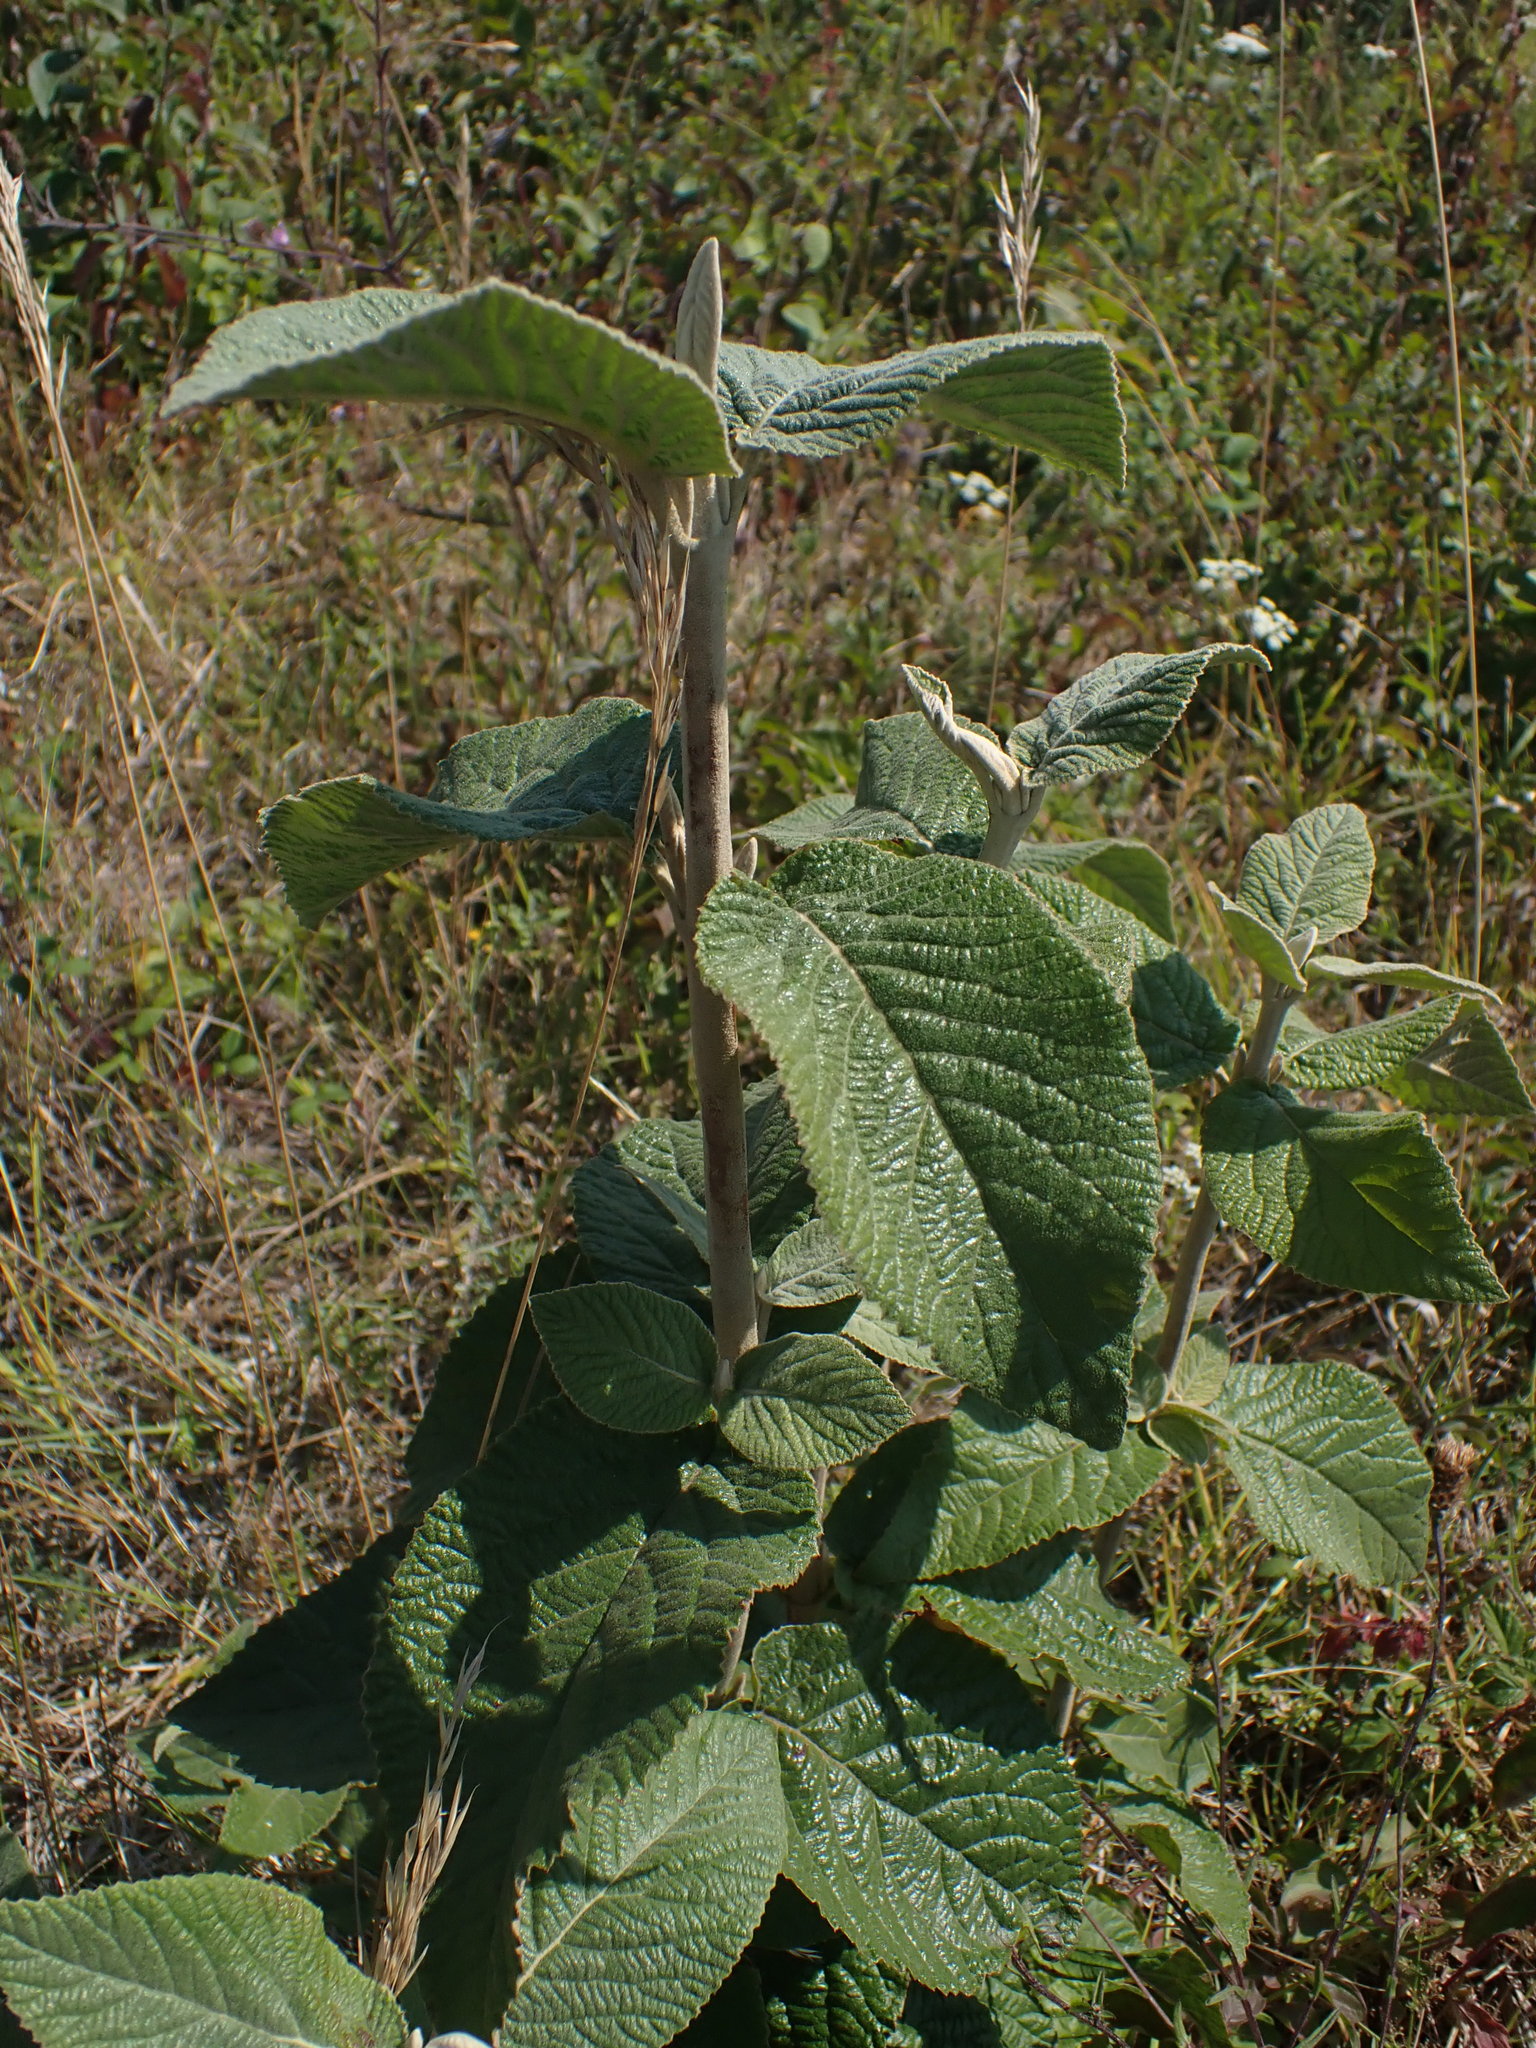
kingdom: Plantae
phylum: Tracheophyta
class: Magnoliopsida
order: Dipsacales
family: Viburnaceae
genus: Viburnum
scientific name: Viburnum lantana
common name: Wayfaring tree
